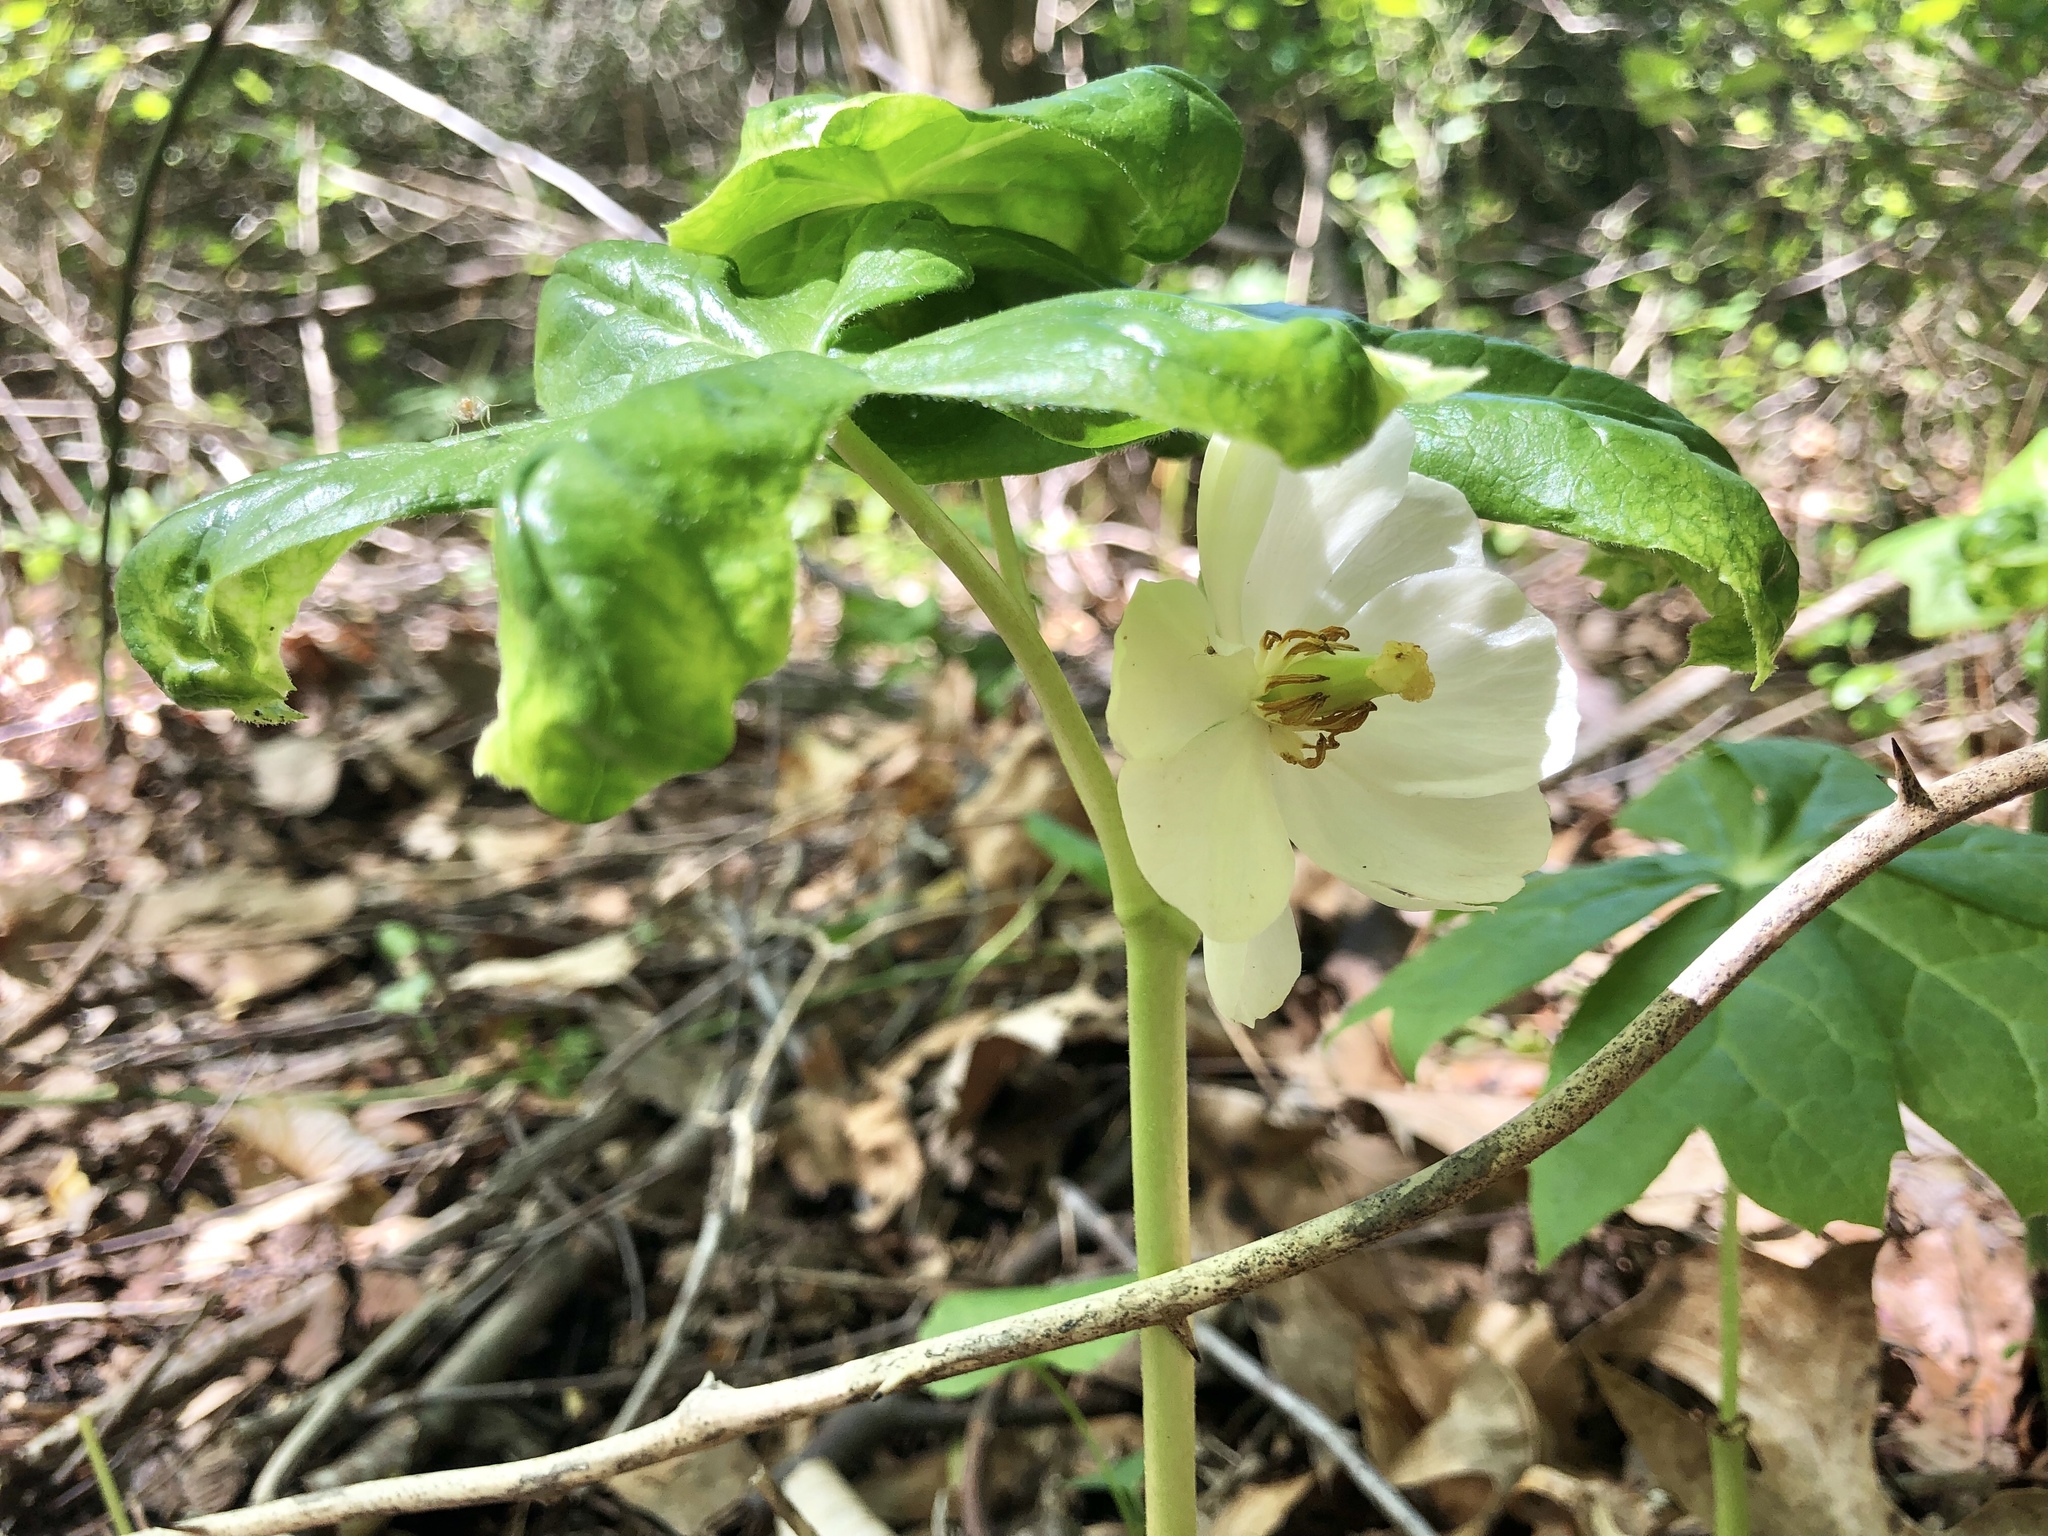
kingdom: Plantae
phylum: Tracheophyta
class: Magnoliopsida
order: Ranunculales
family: Berberidaceae
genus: Podophyllum
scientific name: Podophyllum peltatum
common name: Wild mandrake
